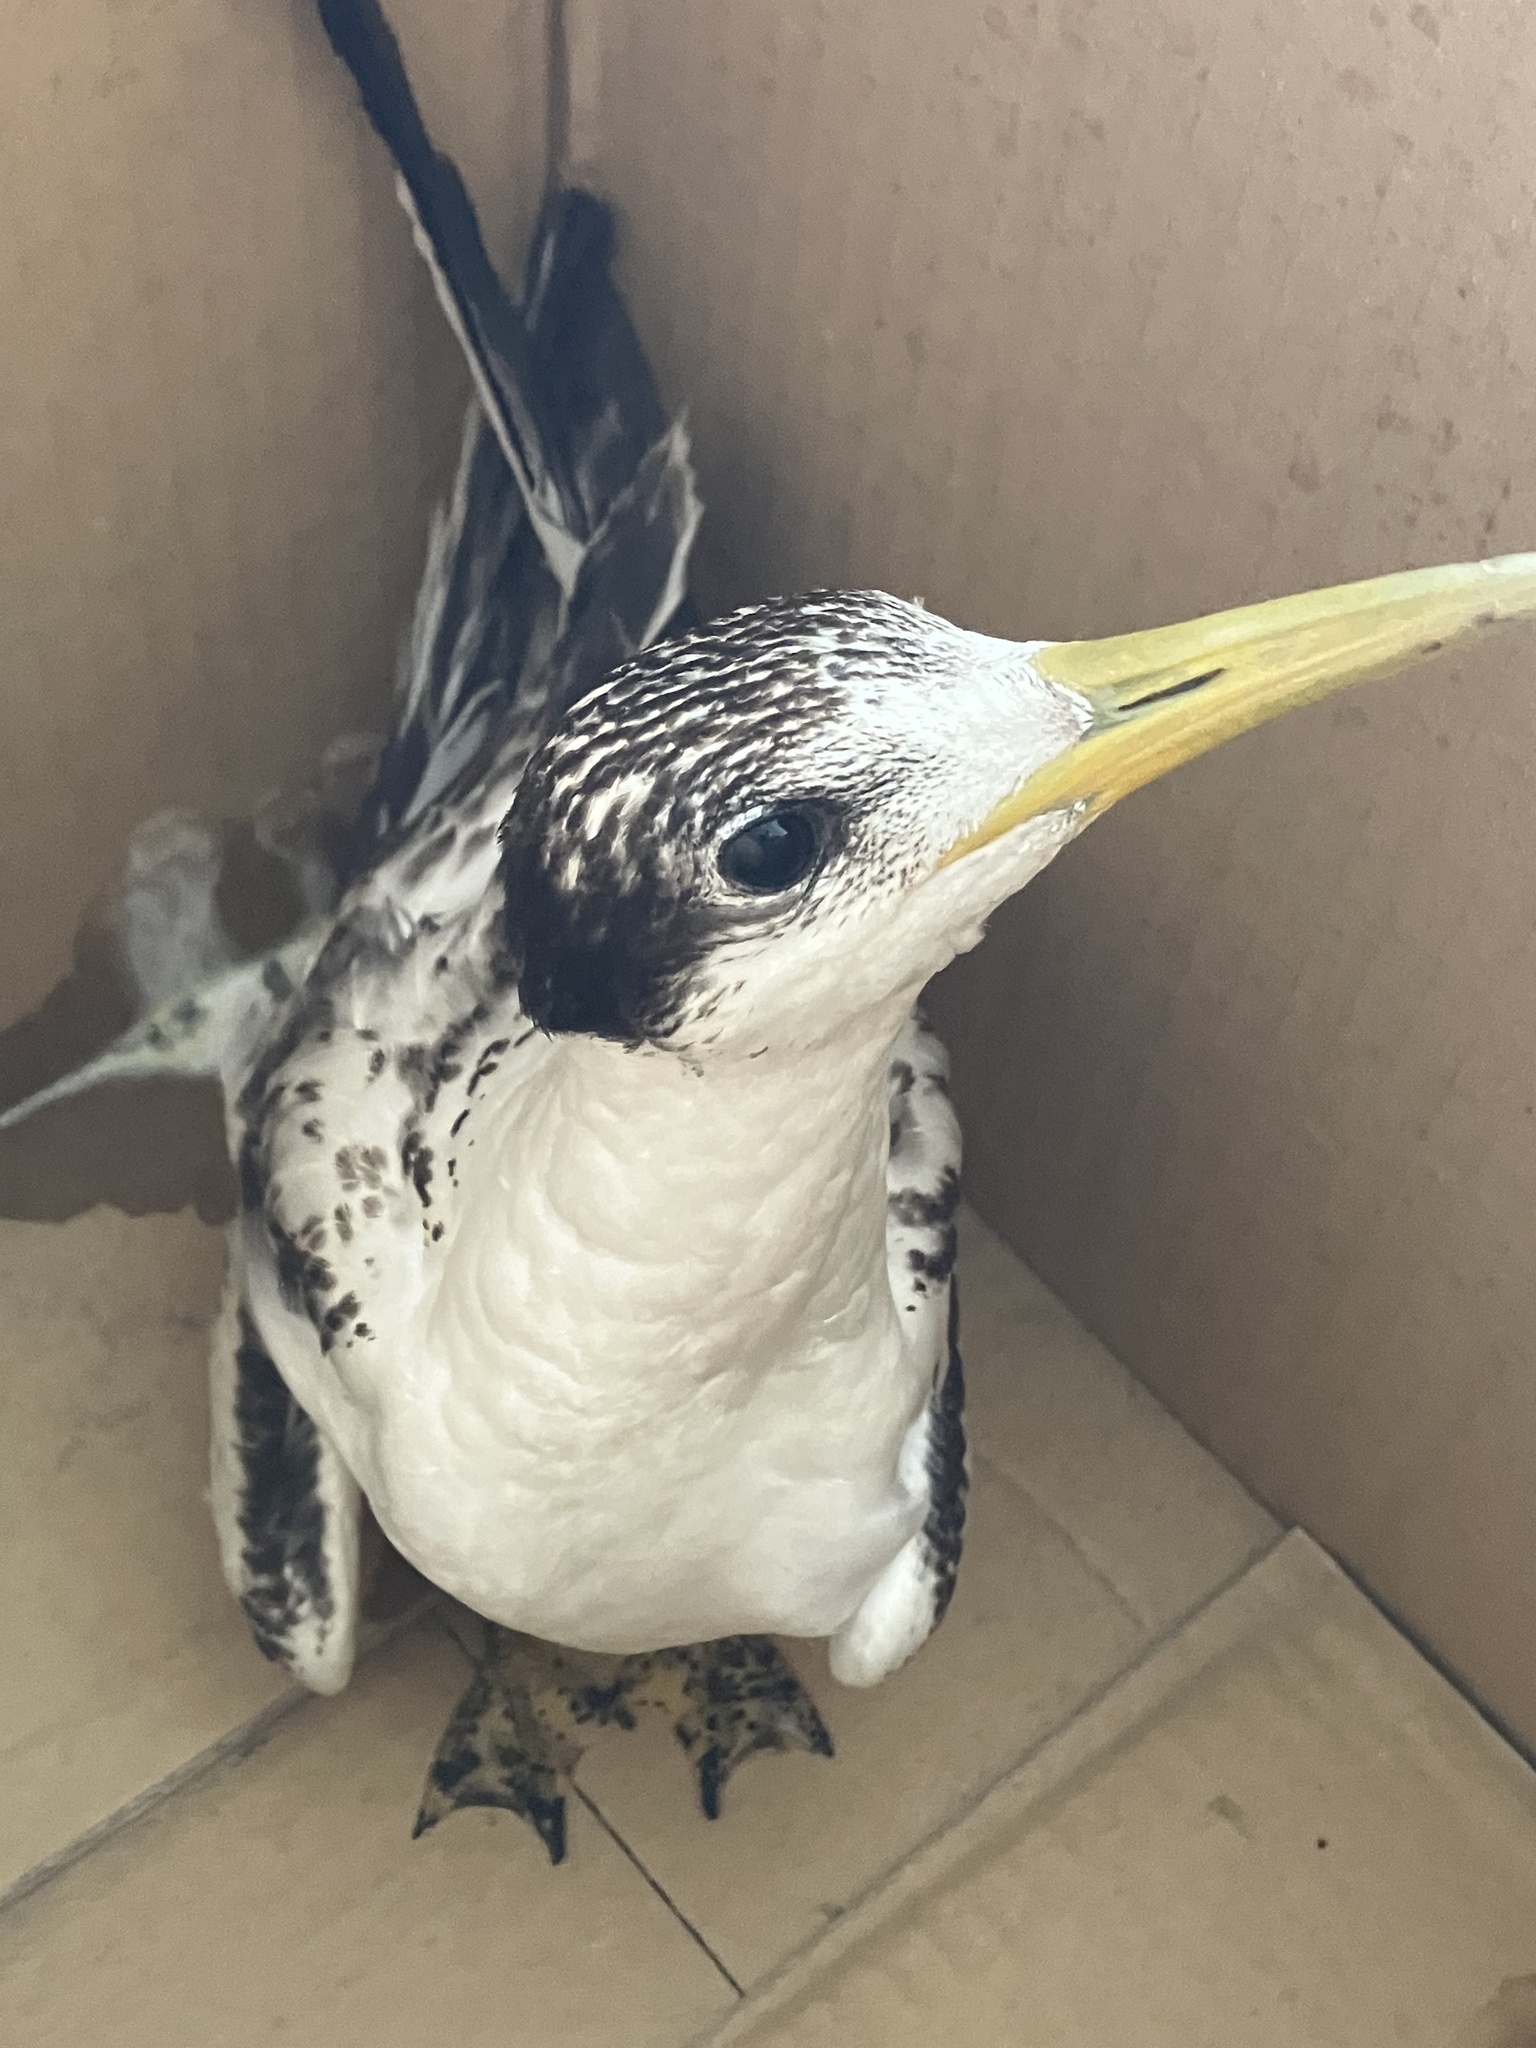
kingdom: Animalia
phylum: Chordata
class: Aves
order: Charadriiformes
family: Laridae
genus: Thalasseus
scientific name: Thalasseus bergii
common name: Greater crested tern
